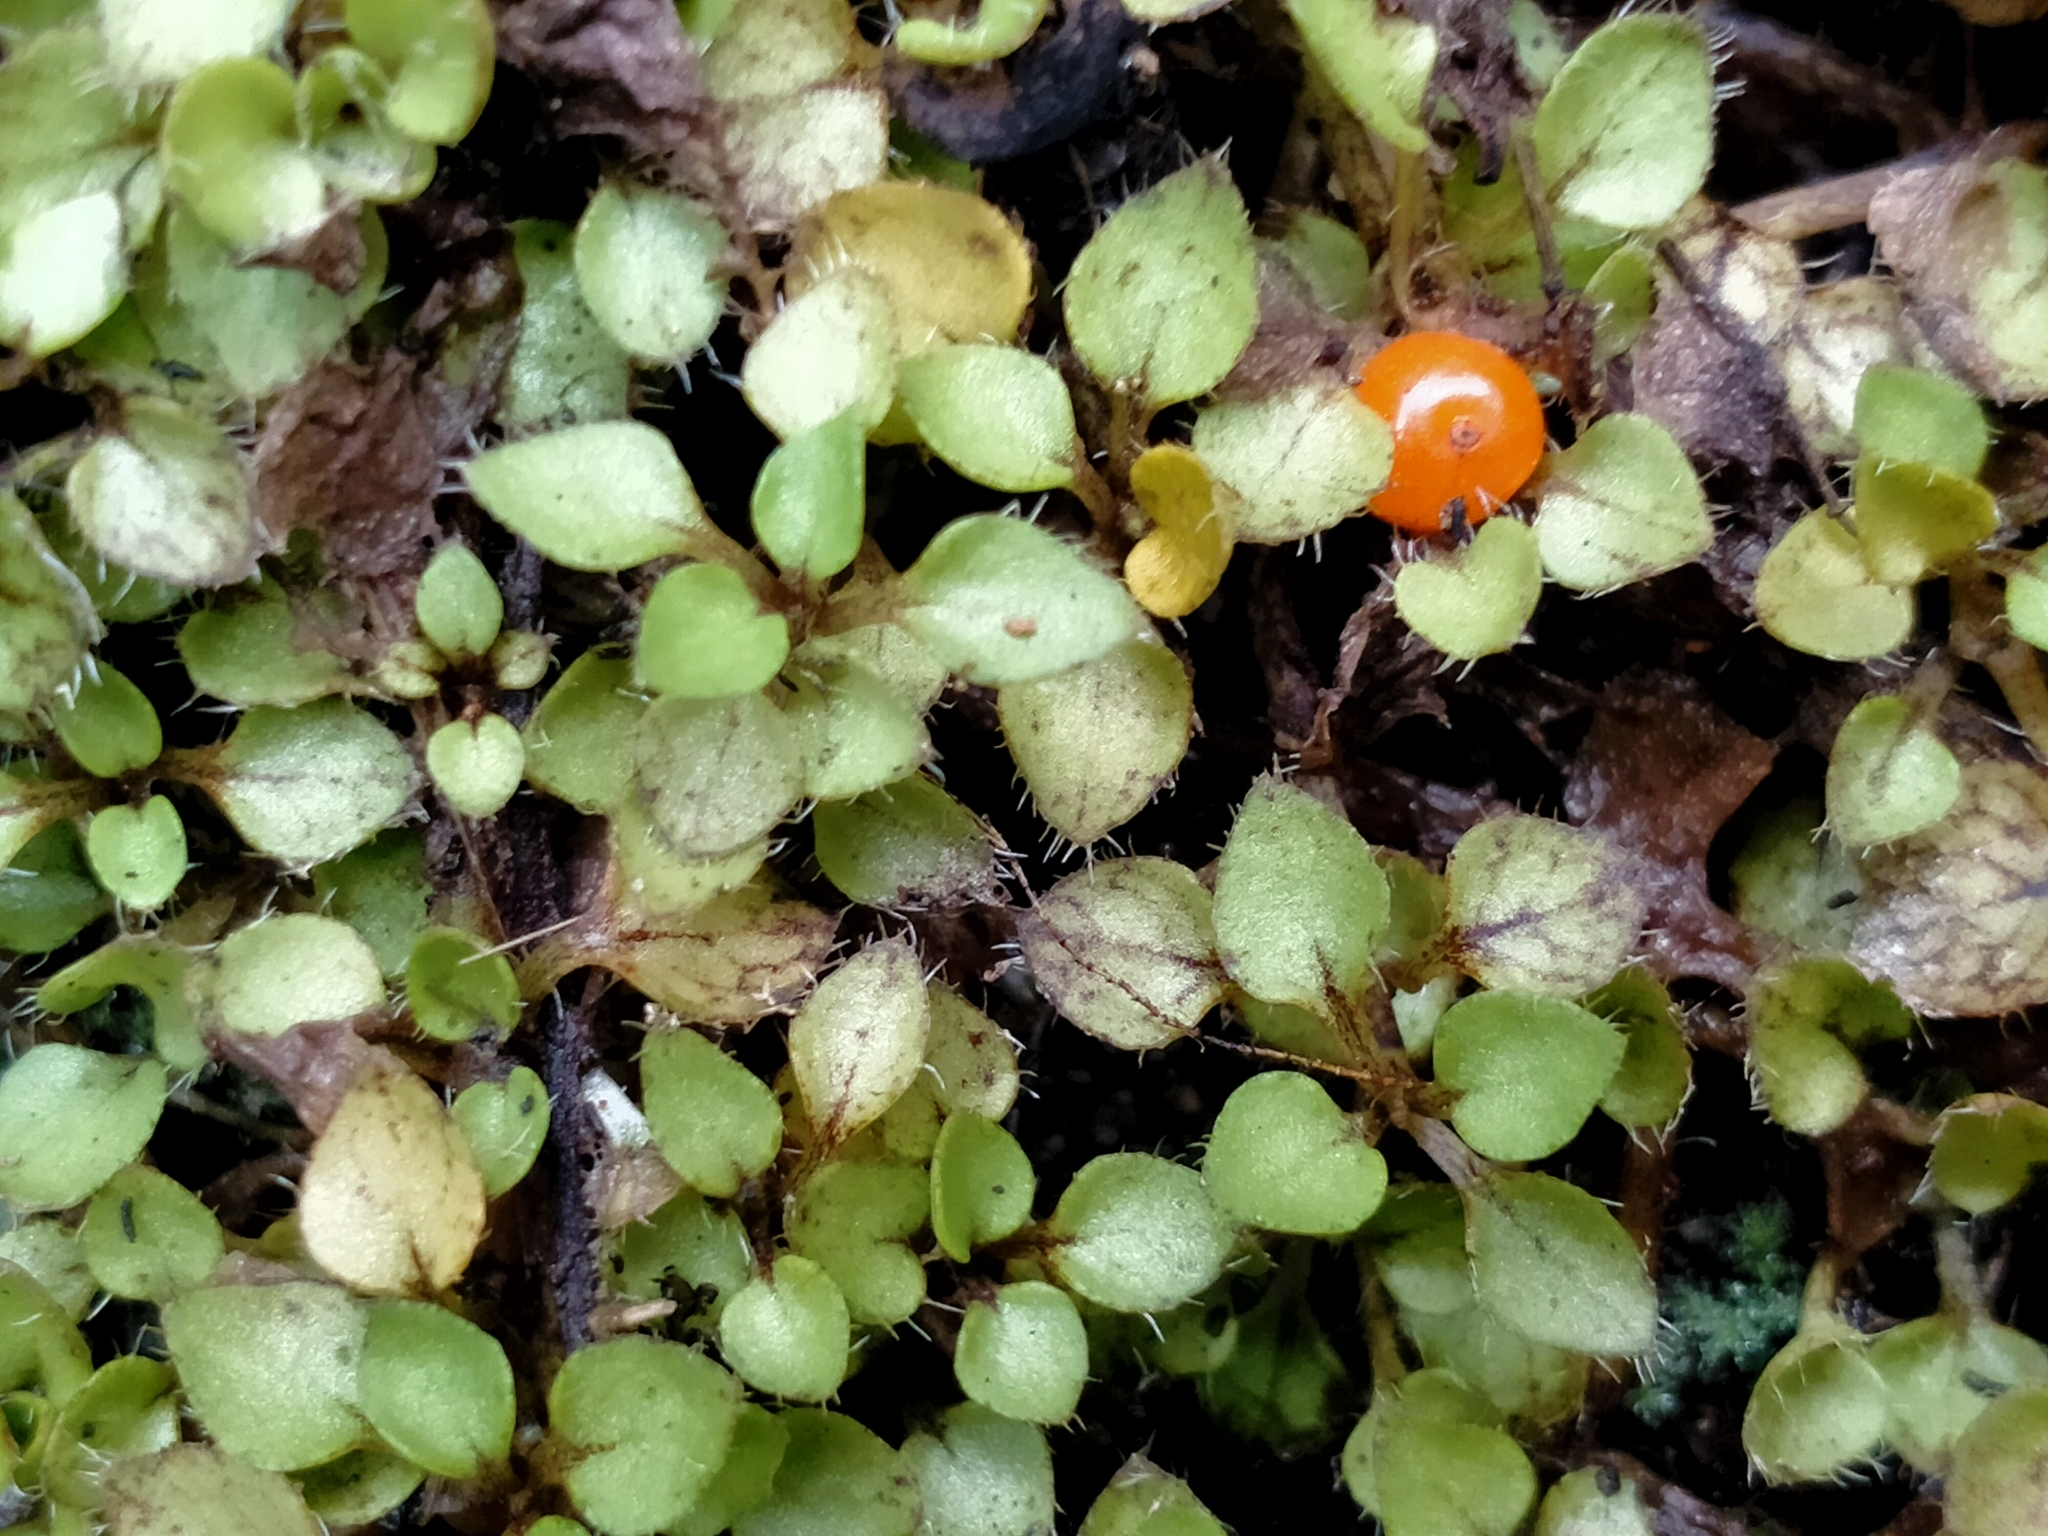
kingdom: Plantae
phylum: Tracheophyta
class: Magnoliopsida
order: Gentianales
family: Rubiaceae
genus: Nertera
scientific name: Nertera ciliata
